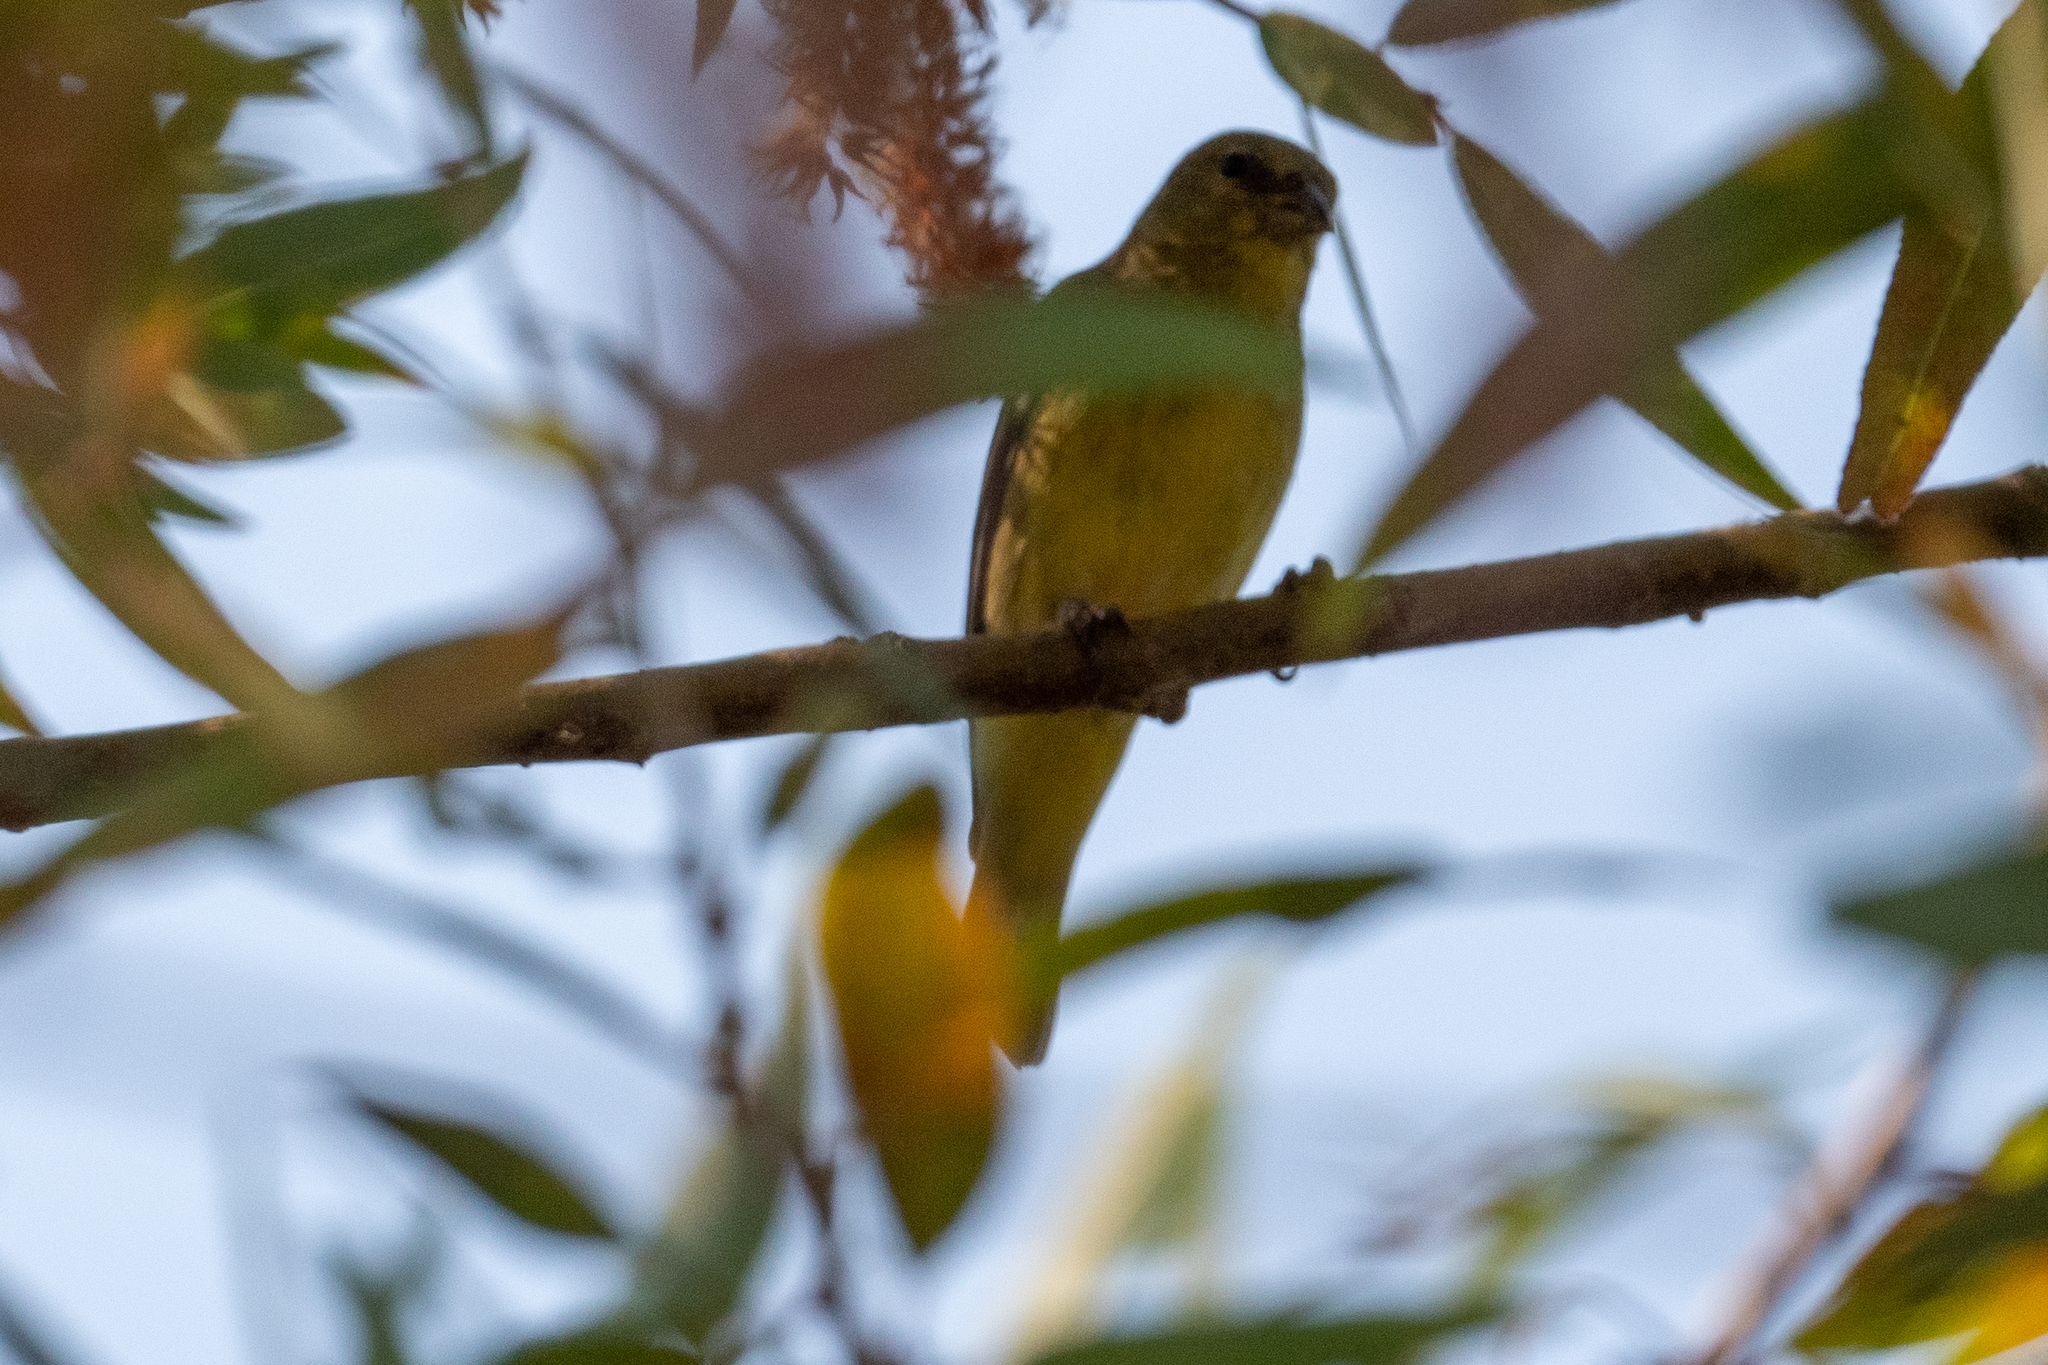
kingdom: Animalia
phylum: Chordata
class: Aves
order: Passeriformes
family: Fringillidae
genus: Spinus
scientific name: Spinus psaltria
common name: Lesser goldfinch
